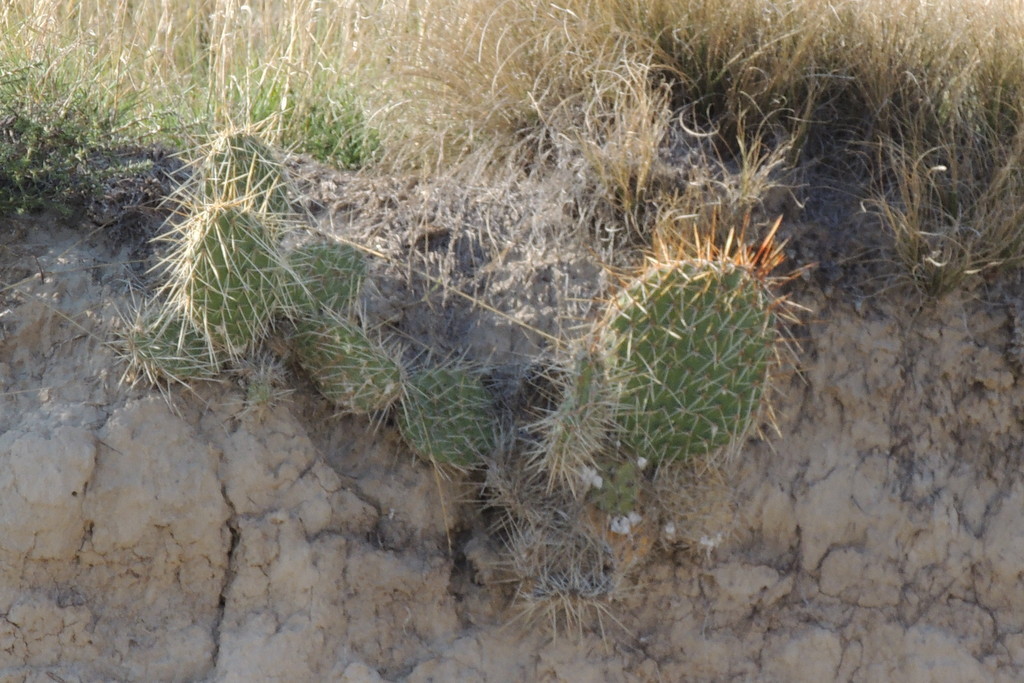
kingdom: Plantae
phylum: Tracheophyta
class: Magnoliopsida
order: Caryophyllales
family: Cactaceae
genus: Opuntia
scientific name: Opuntia polyacantha
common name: Plains prickly-pear
